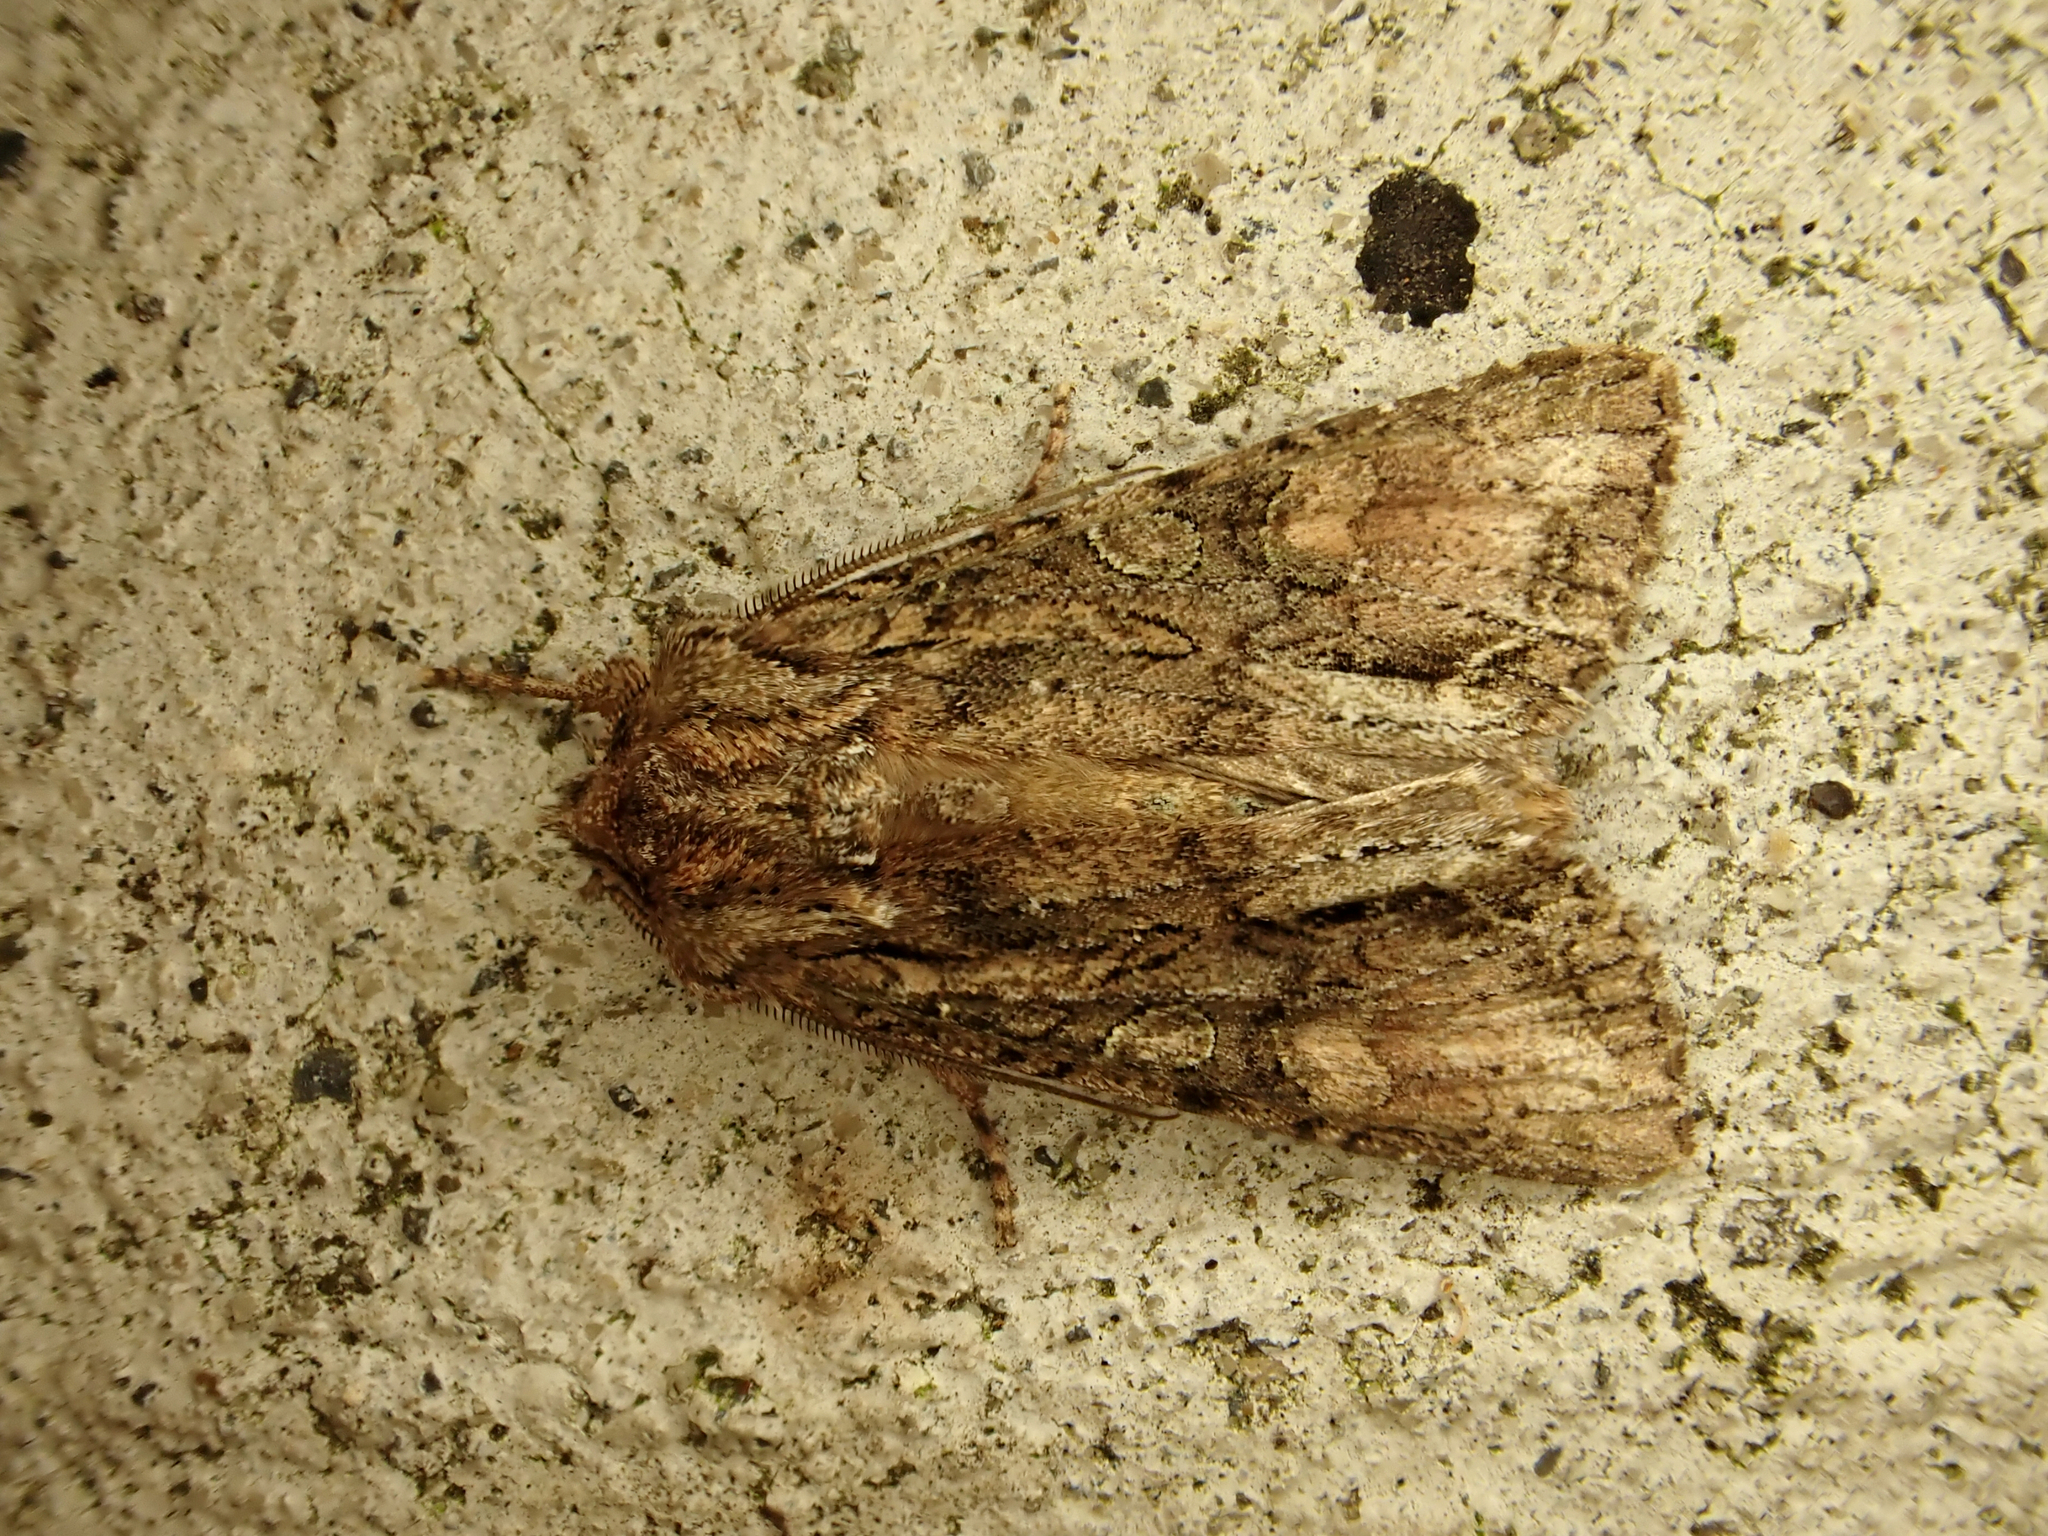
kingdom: Animalia
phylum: Arthropoda
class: Insecta
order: Lepidoptera
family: Noctuidae
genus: Ichneutica
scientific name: Ichneutica mutans
